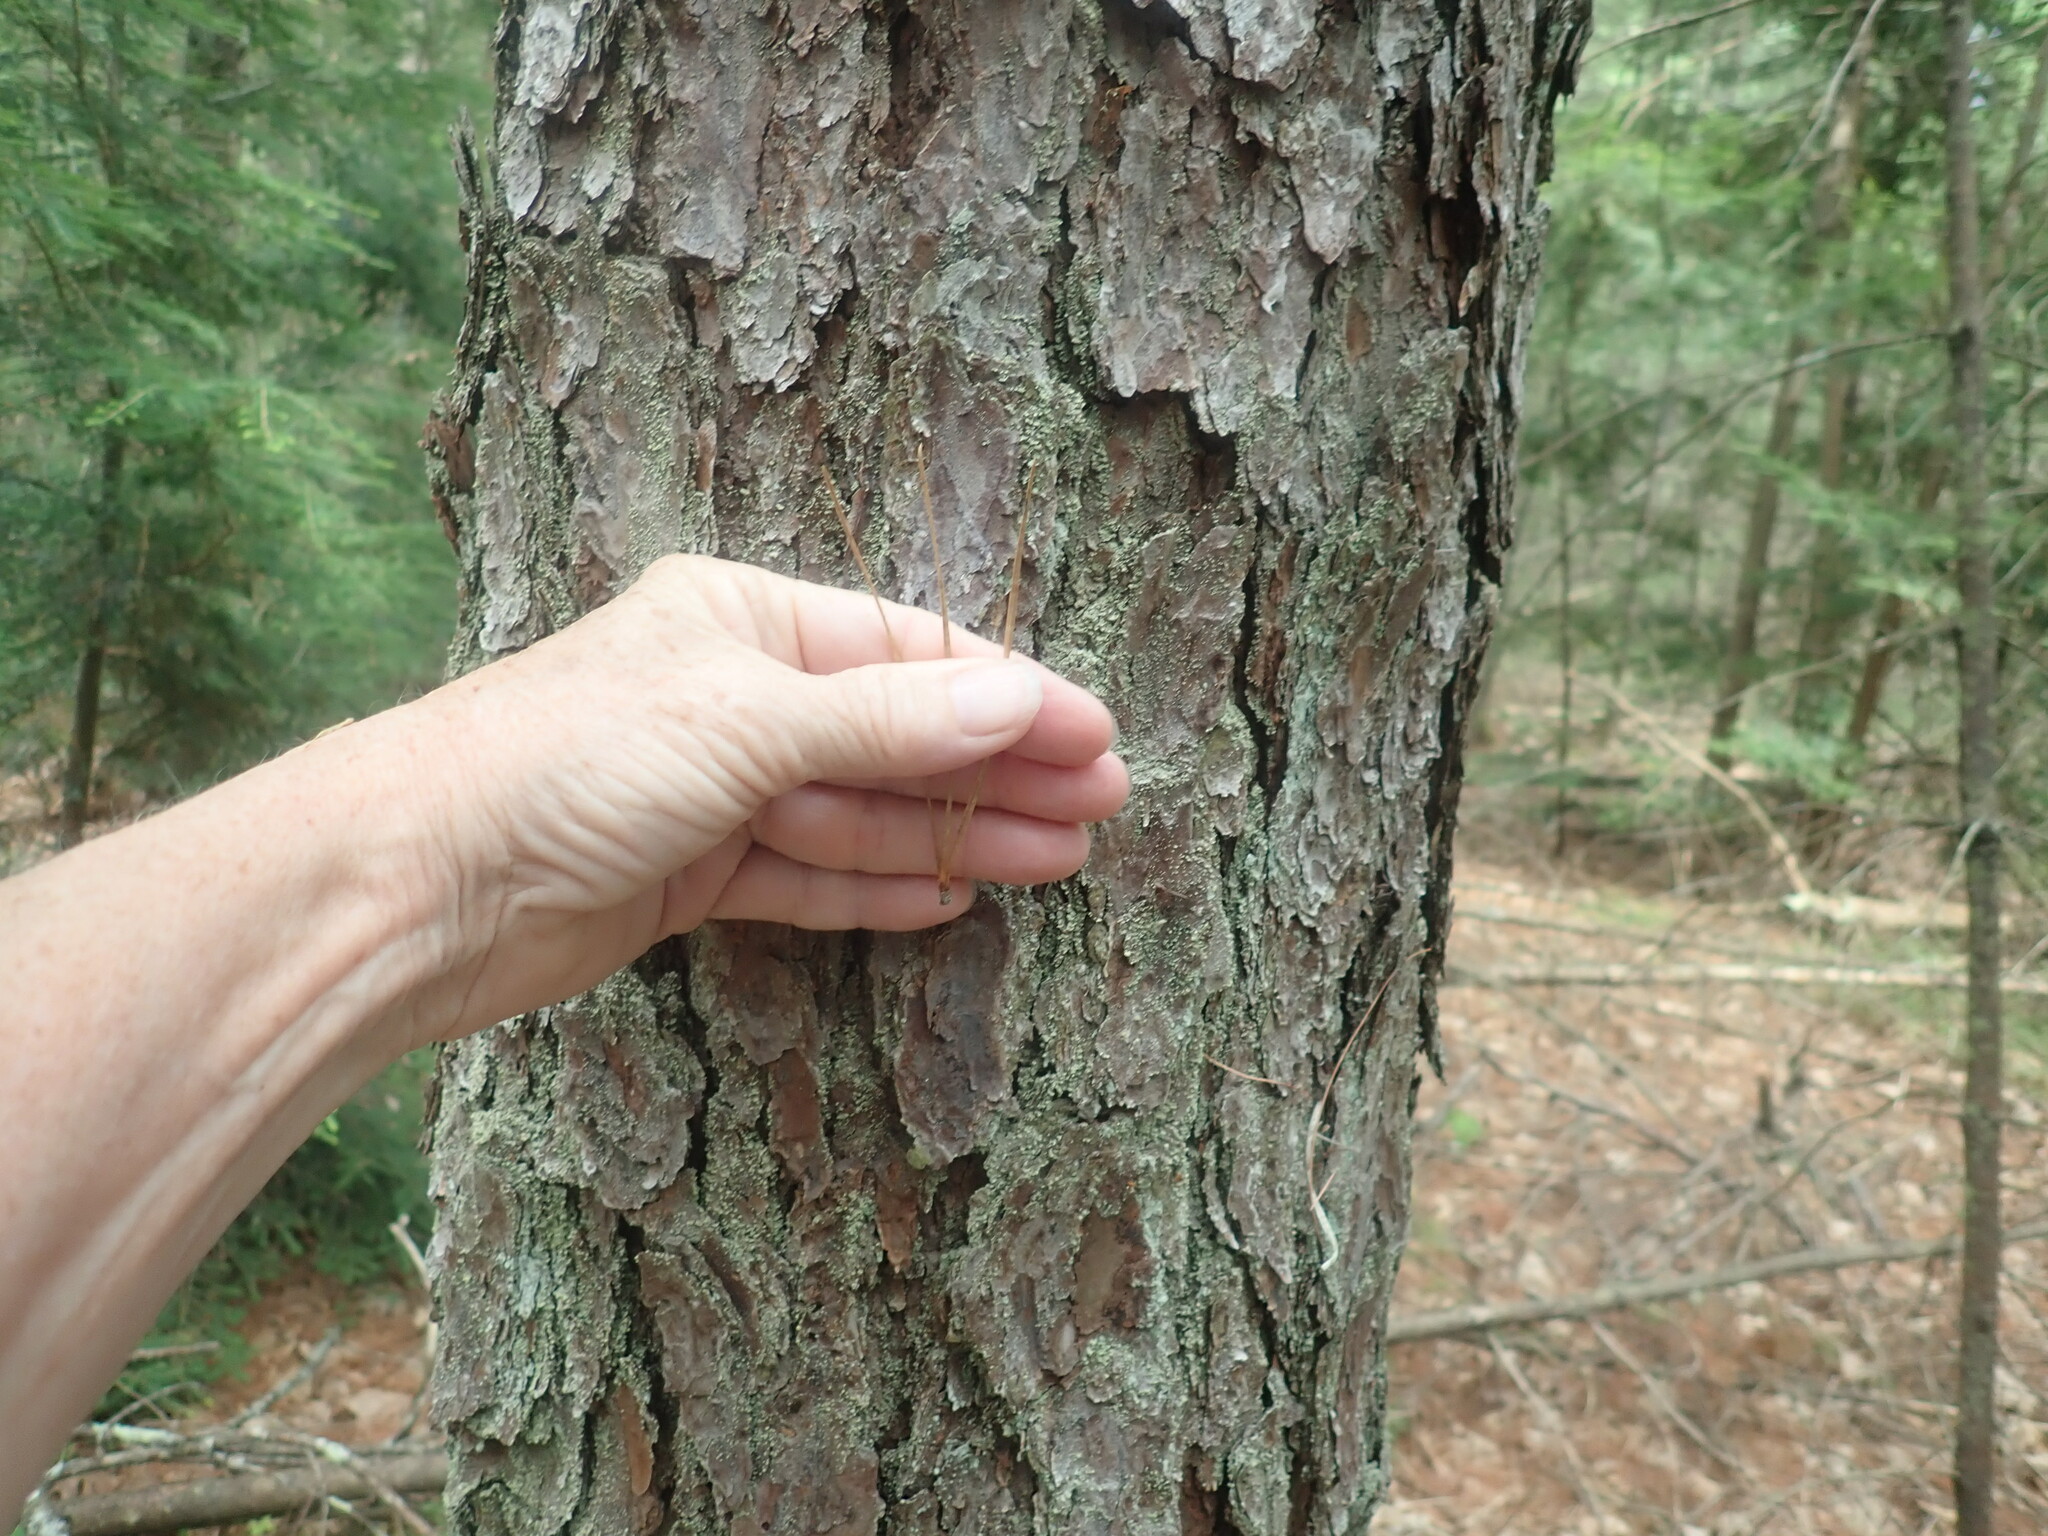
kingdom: Plantae
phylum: Tracheophyta
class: Pinopsida
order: Pinales
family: Pinaceae
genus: Pinus
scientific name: Pinus rigida
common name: Pitch pine
